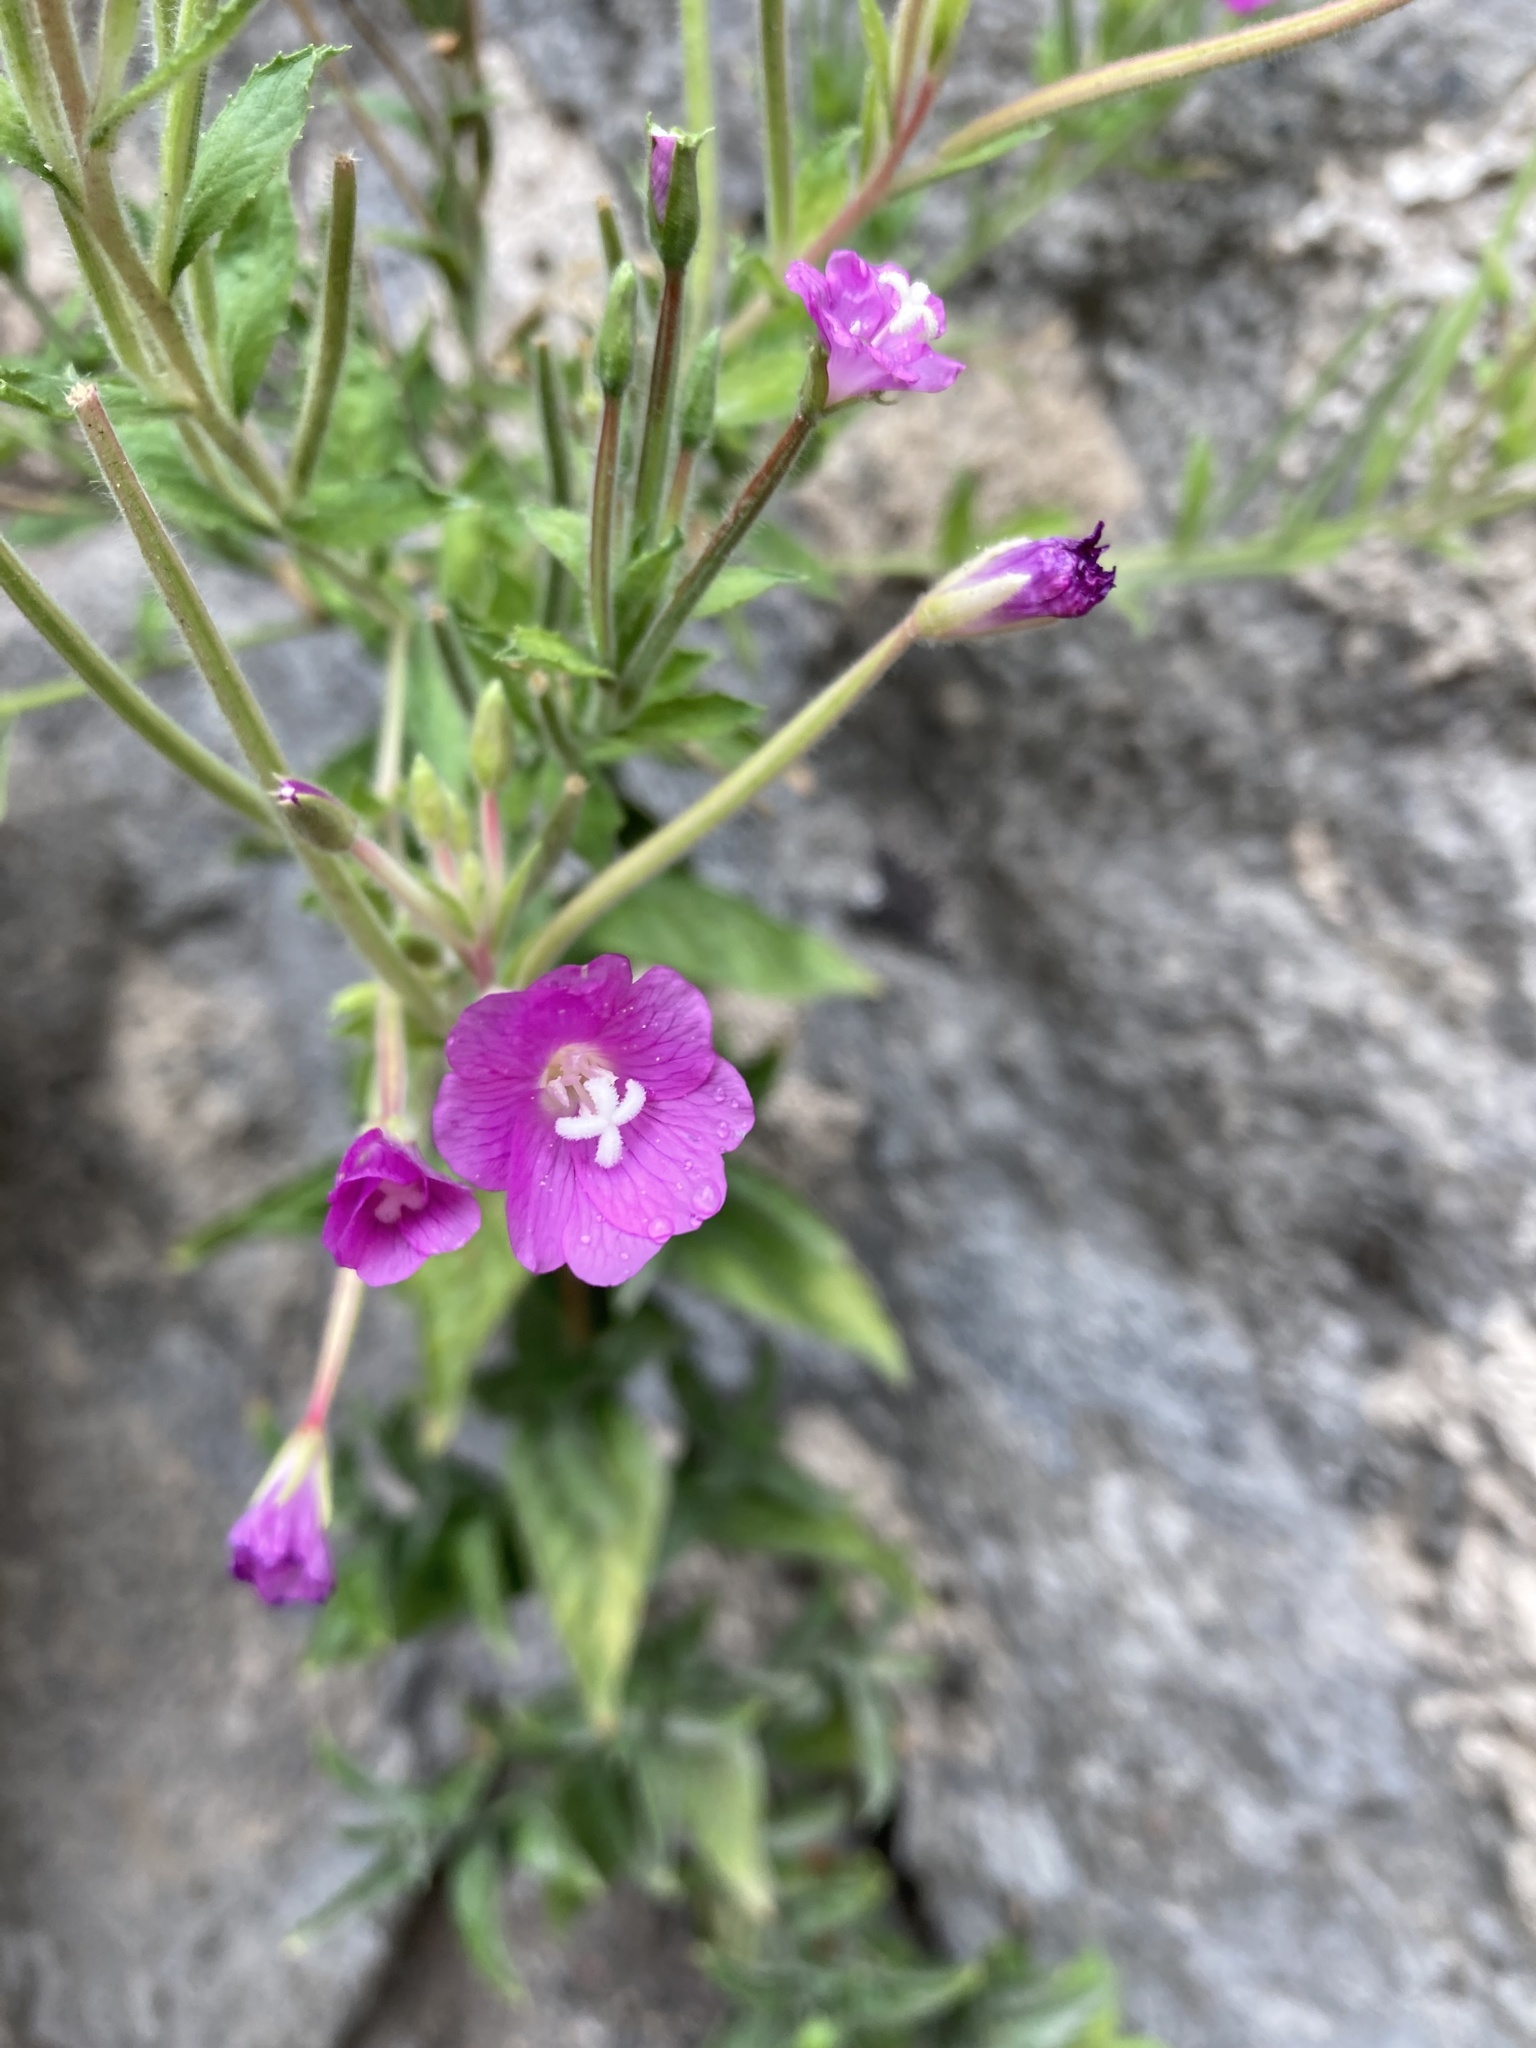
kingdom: Plantae
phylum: Tracheophyta
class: Magnoliopsida
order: Myrtales
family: Onagraceae
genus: Epilobium
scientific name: Epilobium hirsutum
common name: Great willowherb
